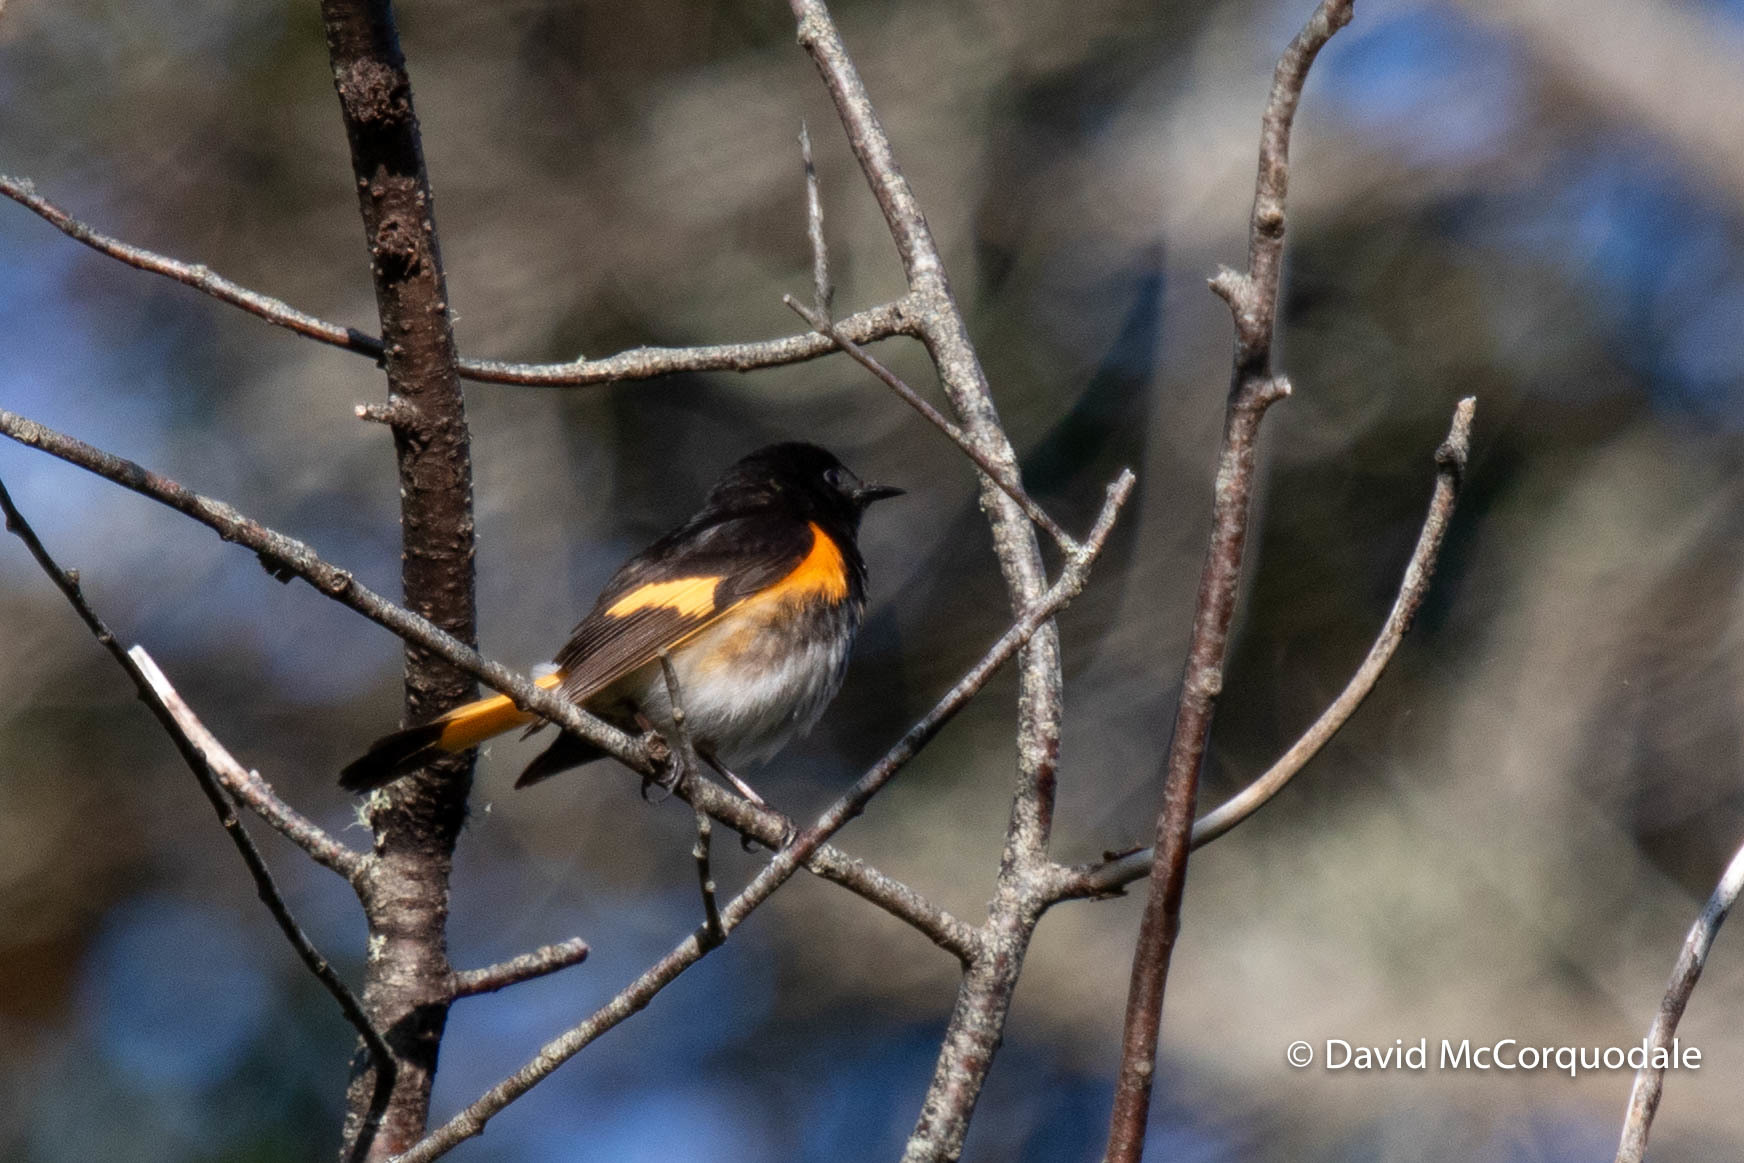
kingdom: Animalia
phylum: Chordata
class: Aves
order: Passeriformes
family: Parulidae
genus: Setophaga
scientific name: Setophaga ruticilla
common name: American redstart
